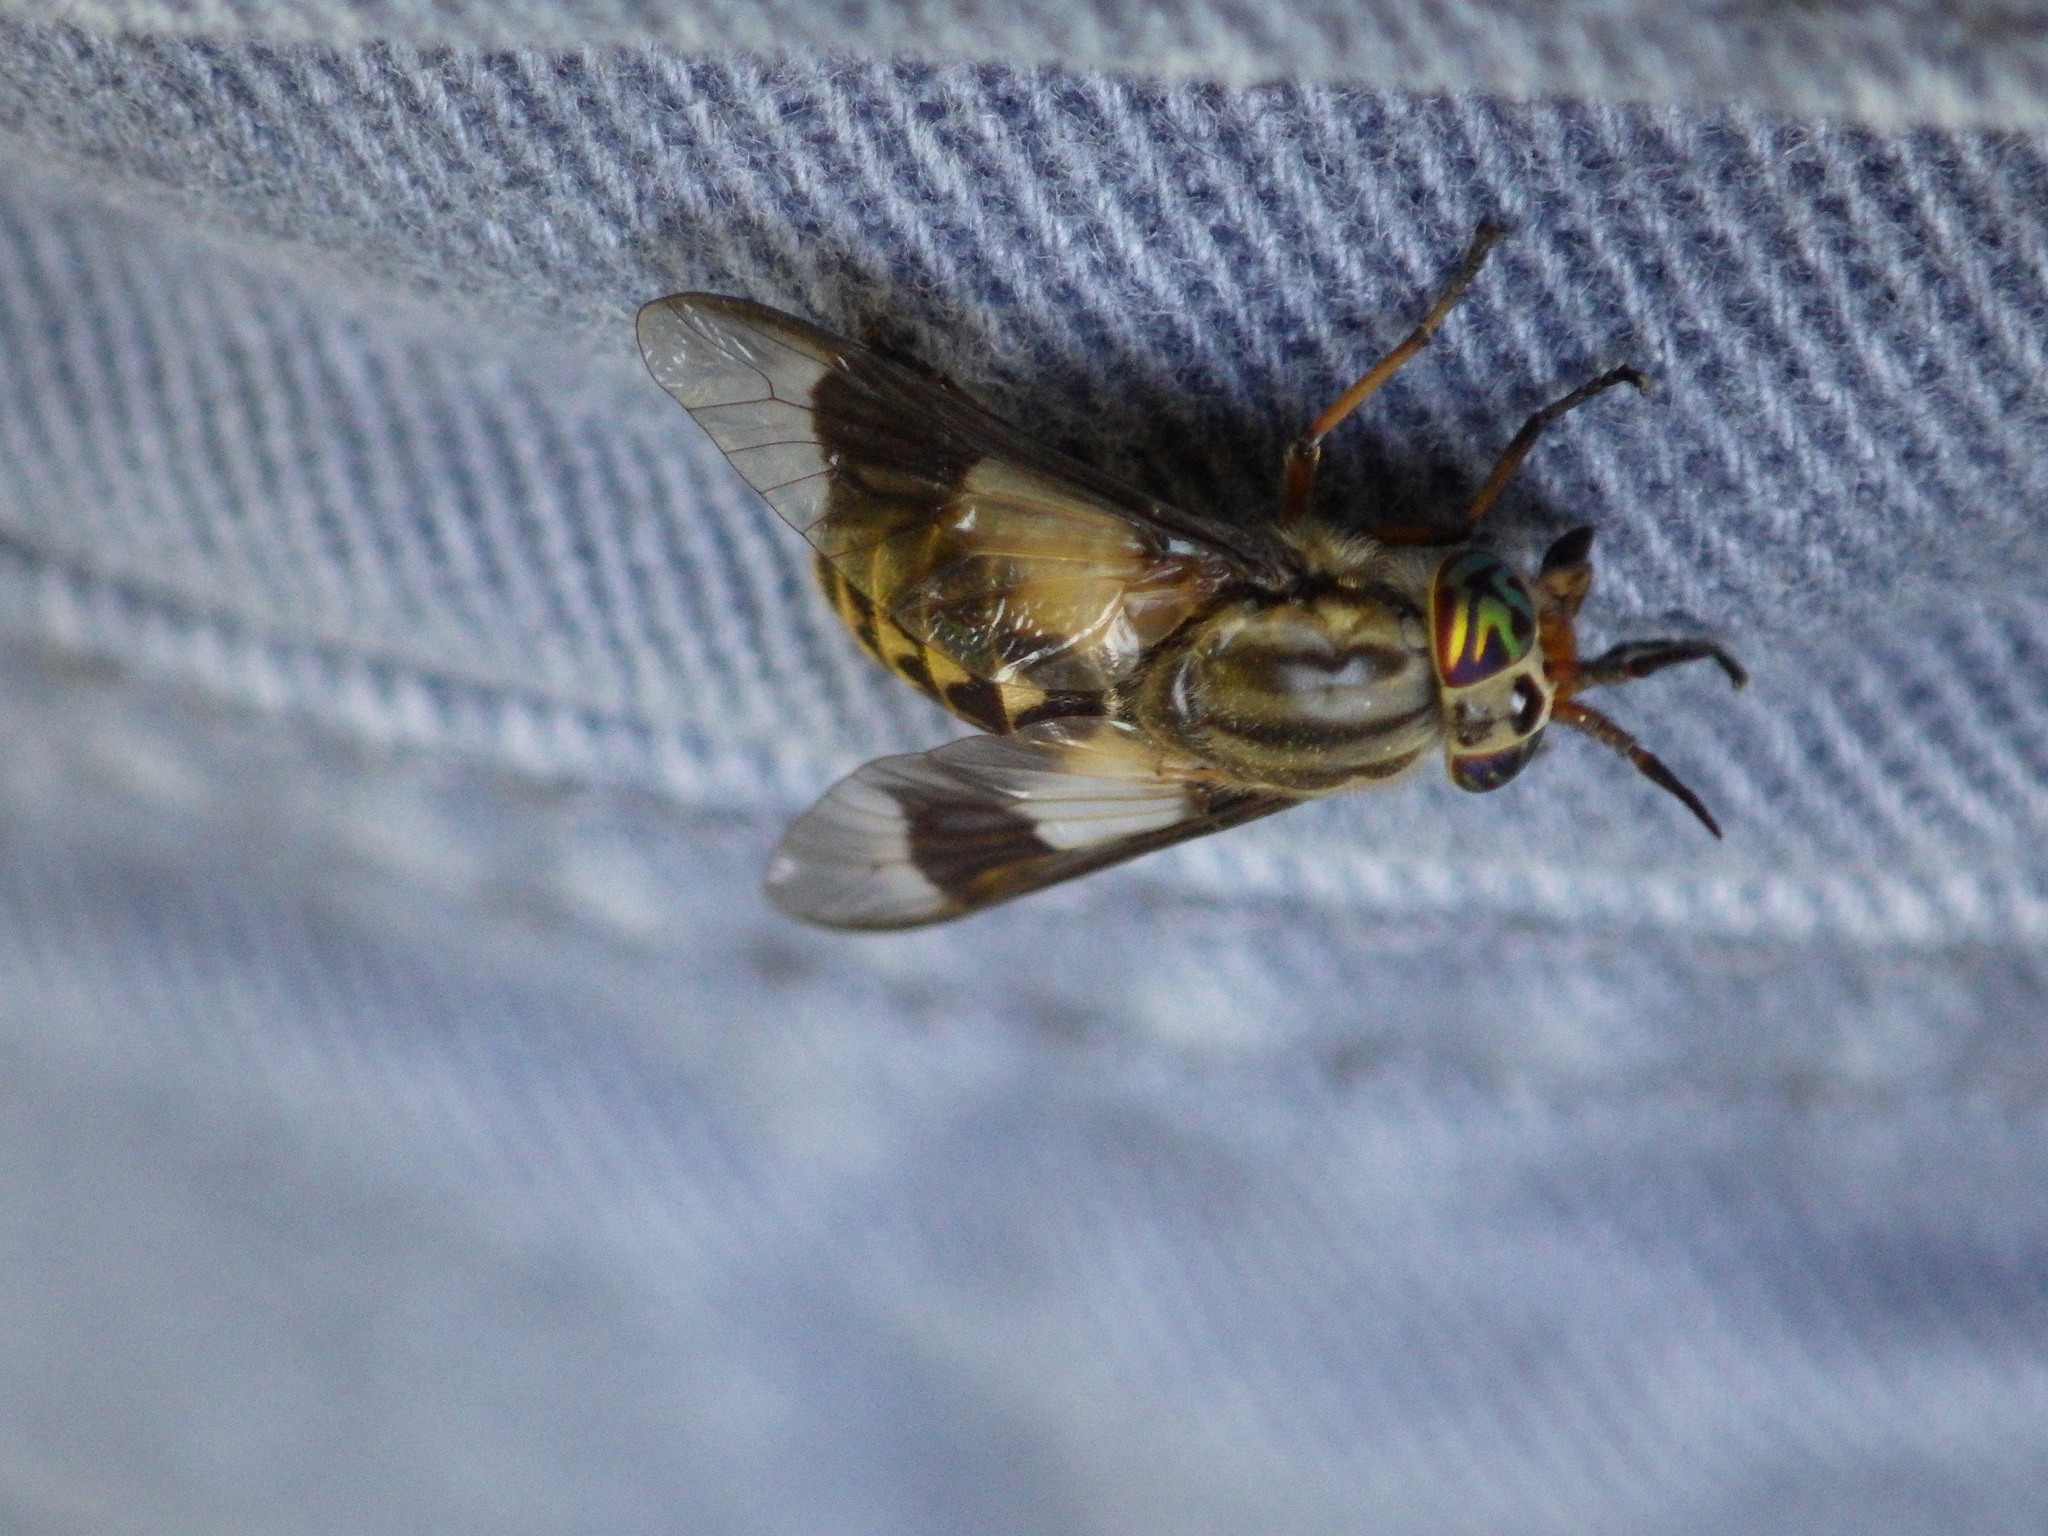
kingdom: Animalia
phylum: Arthropoda
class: Insecta
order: Diptera
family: Tabanidae
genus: Chrysops
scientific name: Chrysops aestuans
